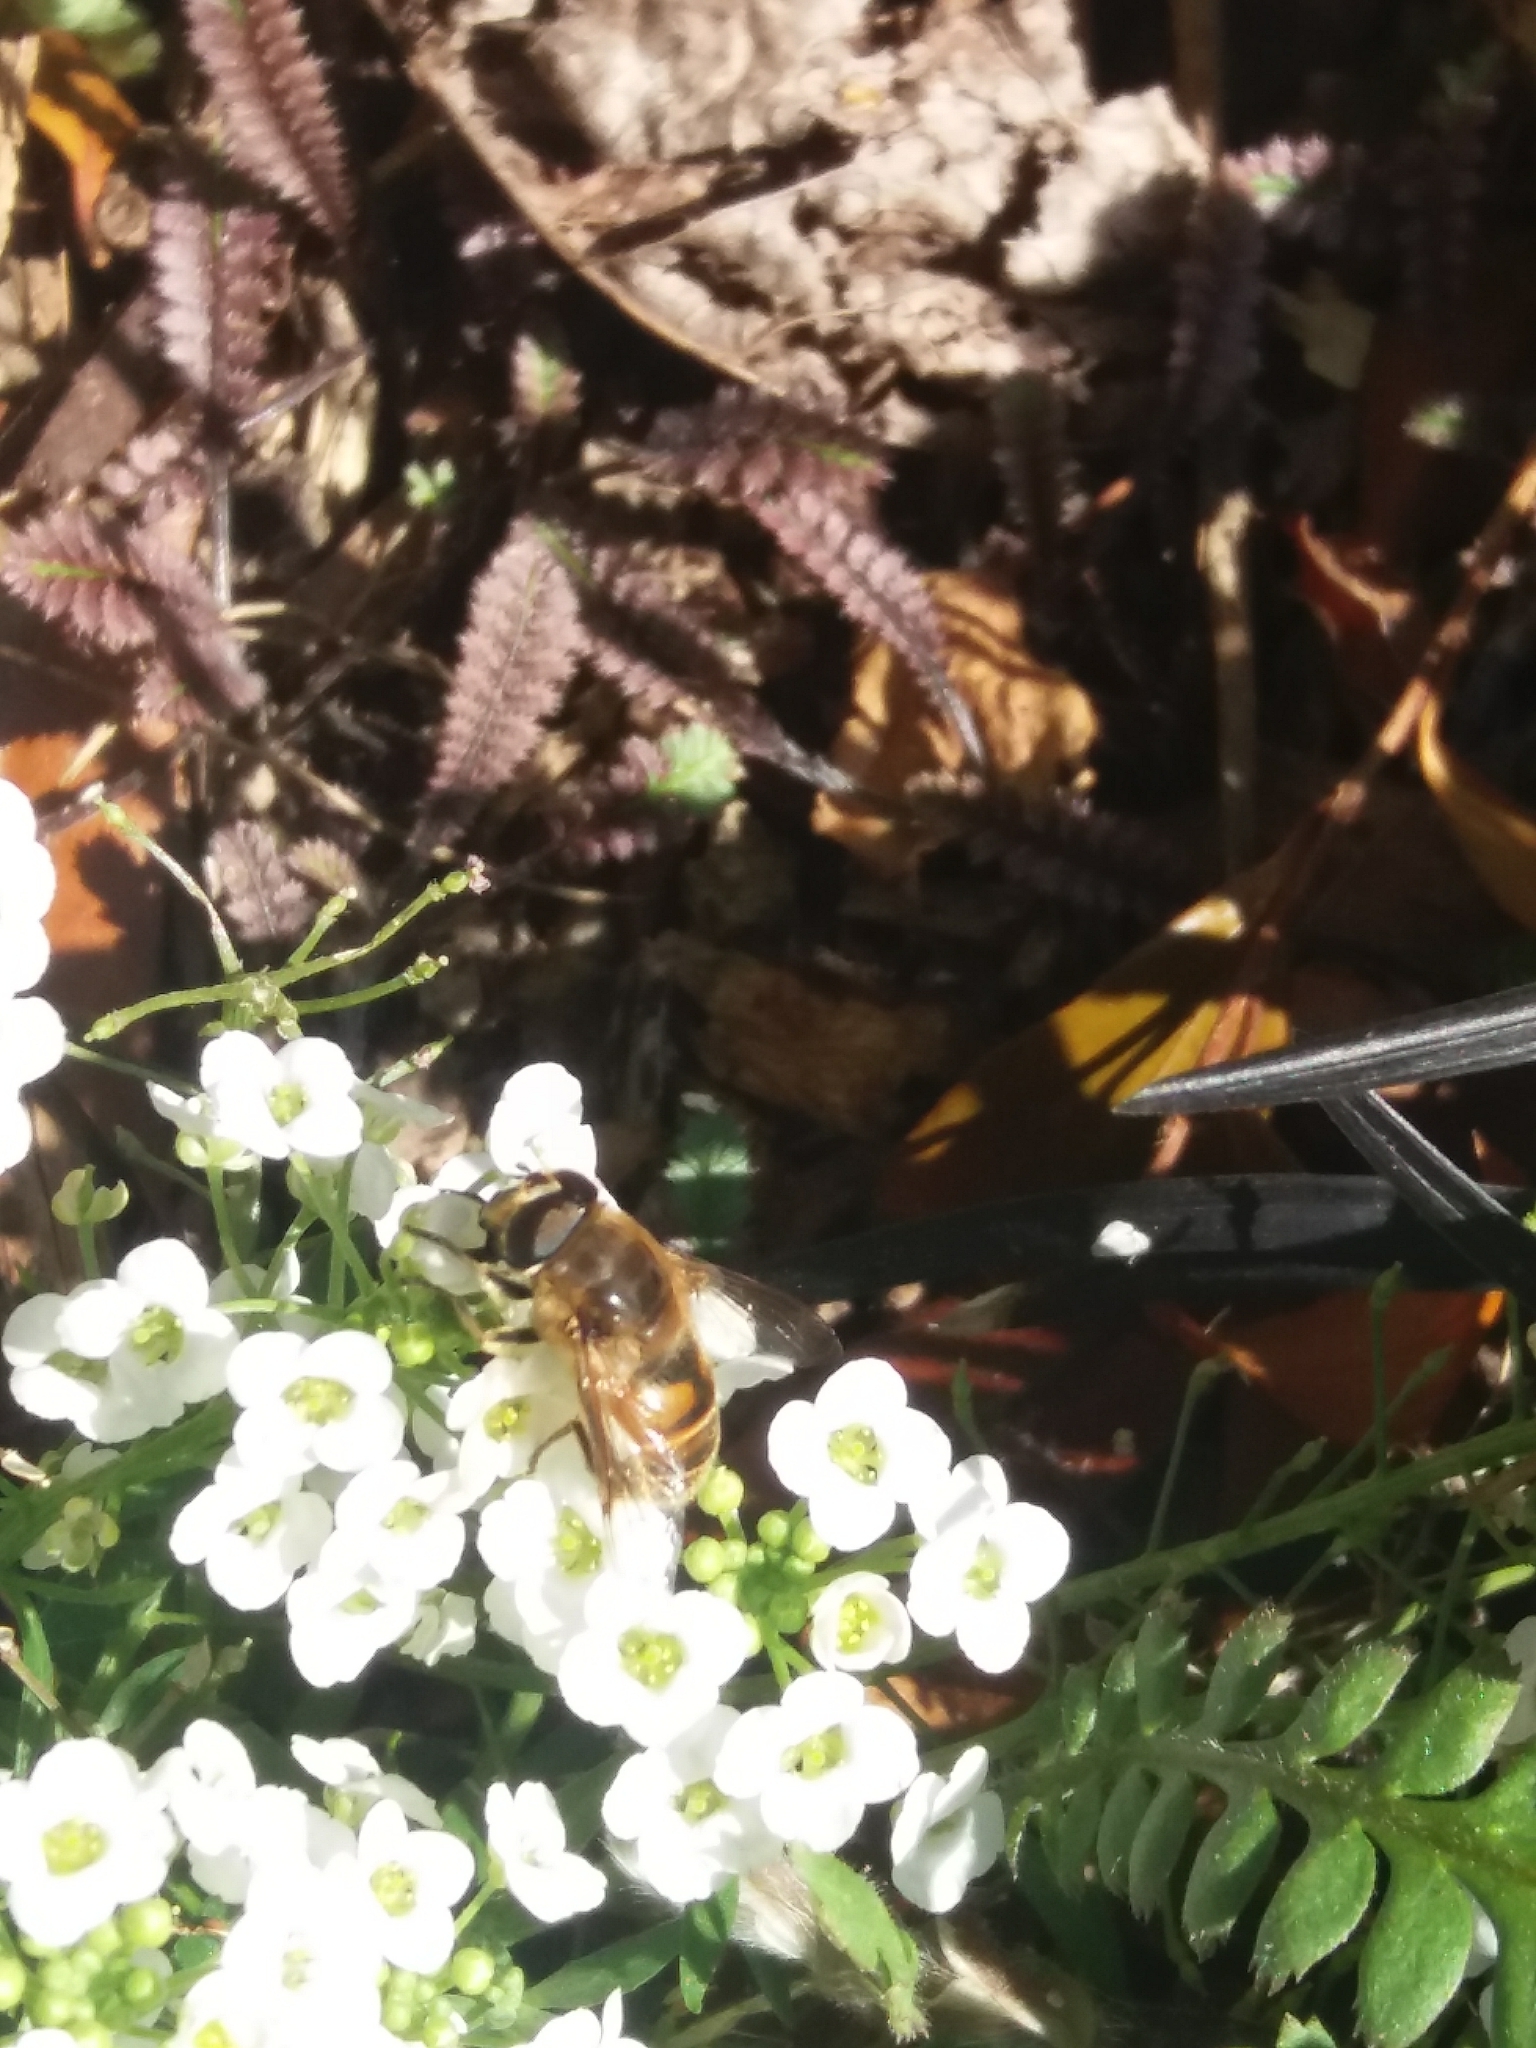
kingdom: Animalia
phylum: Arthropoda
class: Insecta
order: Diptera
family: Syrphidae
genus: Eristalis
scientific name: Eristalis tenax
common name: Drone fly
